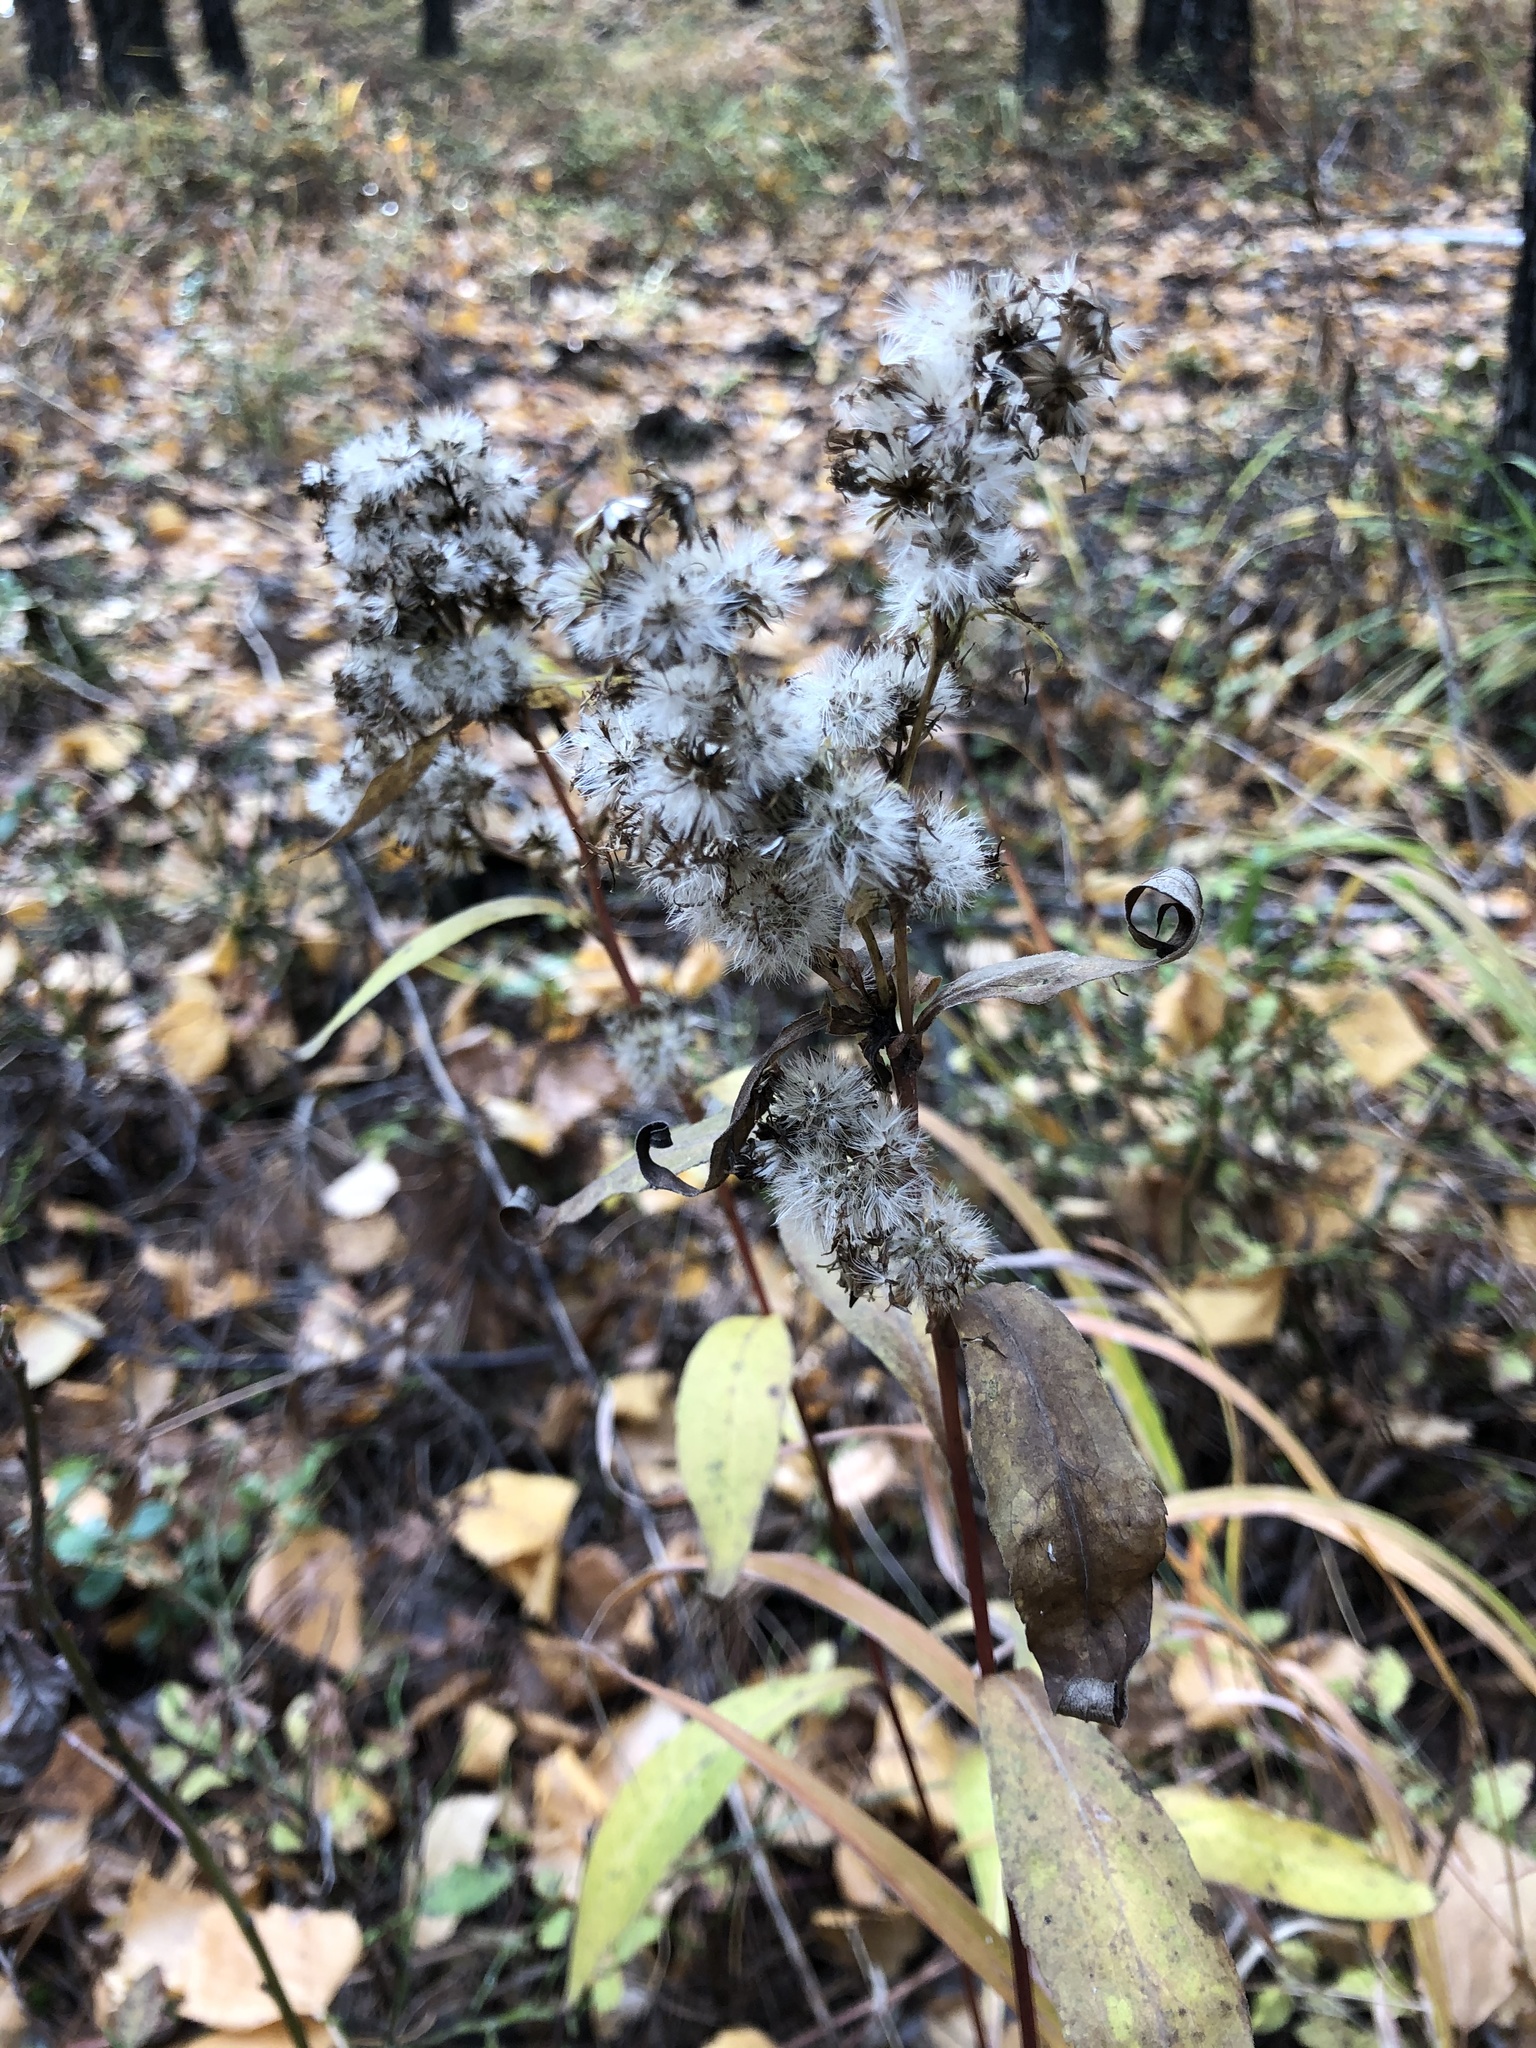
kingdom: Plantae
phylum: Tracheophyta
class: Magnoliopsida
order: Asterales
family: Asteraceae
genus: Solidago
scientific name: Solidago virgaurea
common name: Goldenrod
